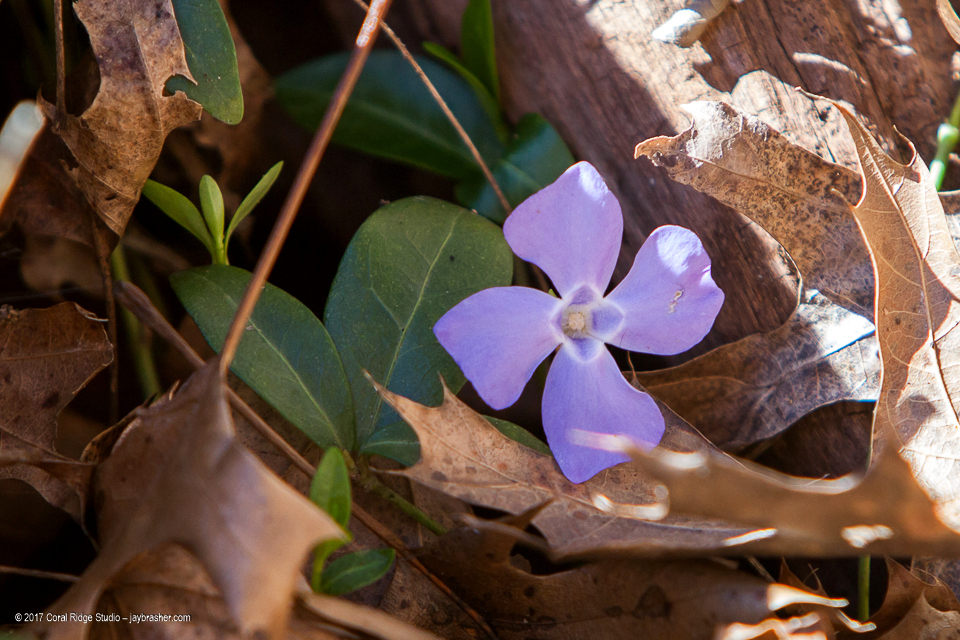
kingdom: Plantae
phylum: Tracheophyta
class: Magnoliopsida
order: Gentianales
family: Apocynaceae
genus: Vinca
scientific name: Vinca minor
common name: Lesser periwinkle
